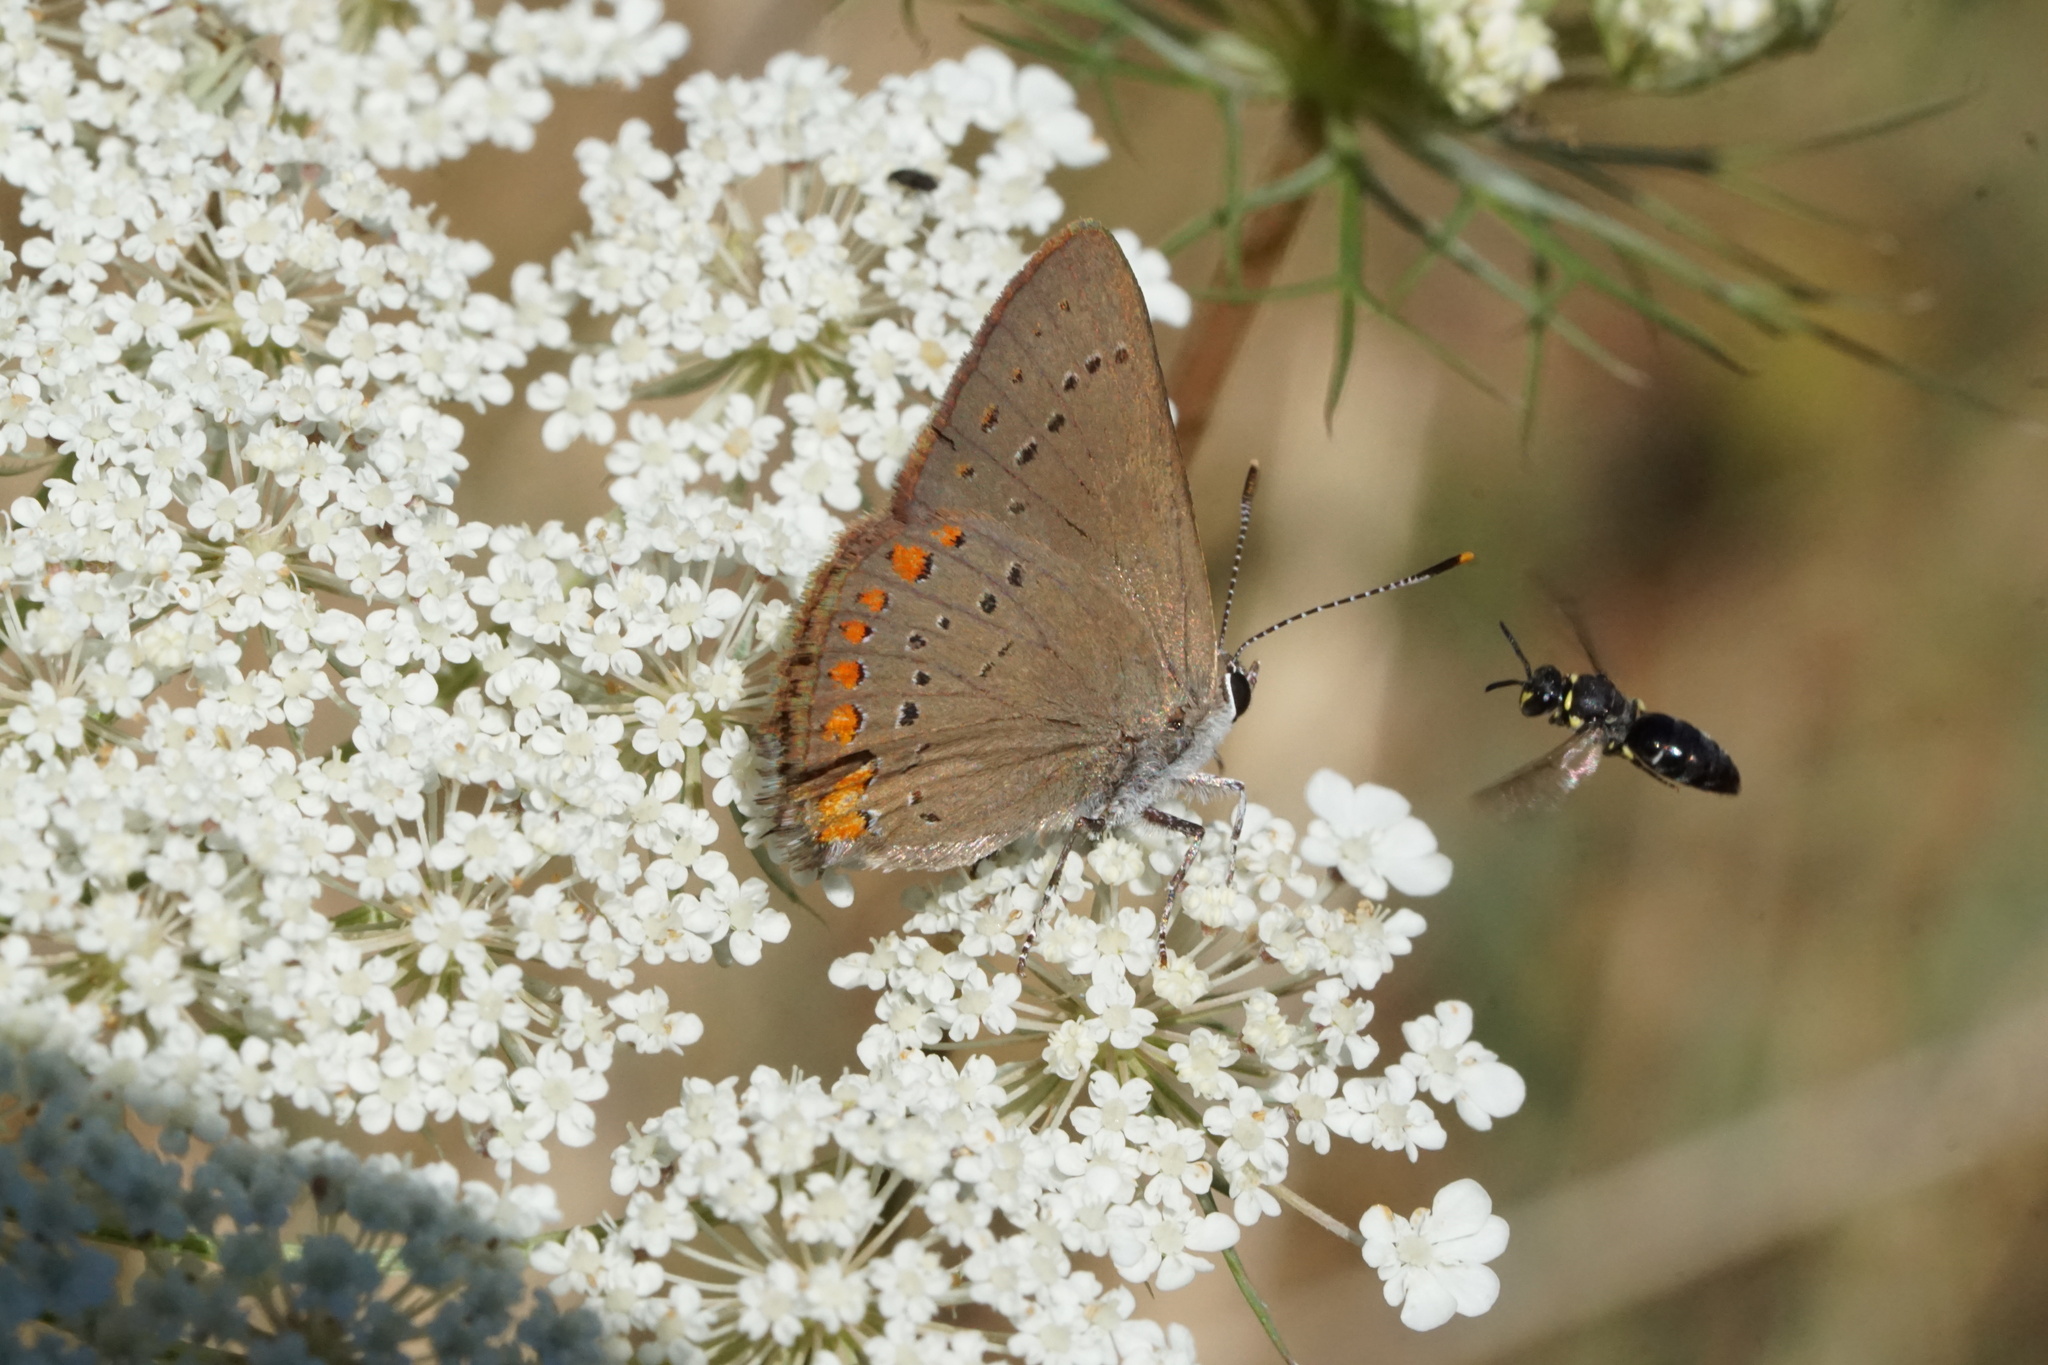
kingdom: Animalia
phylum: Arthropoda
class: Insecta
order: Lepidoptera
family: Lycaenidae
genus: Harkenclenus
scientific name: Harkenclenus titus
